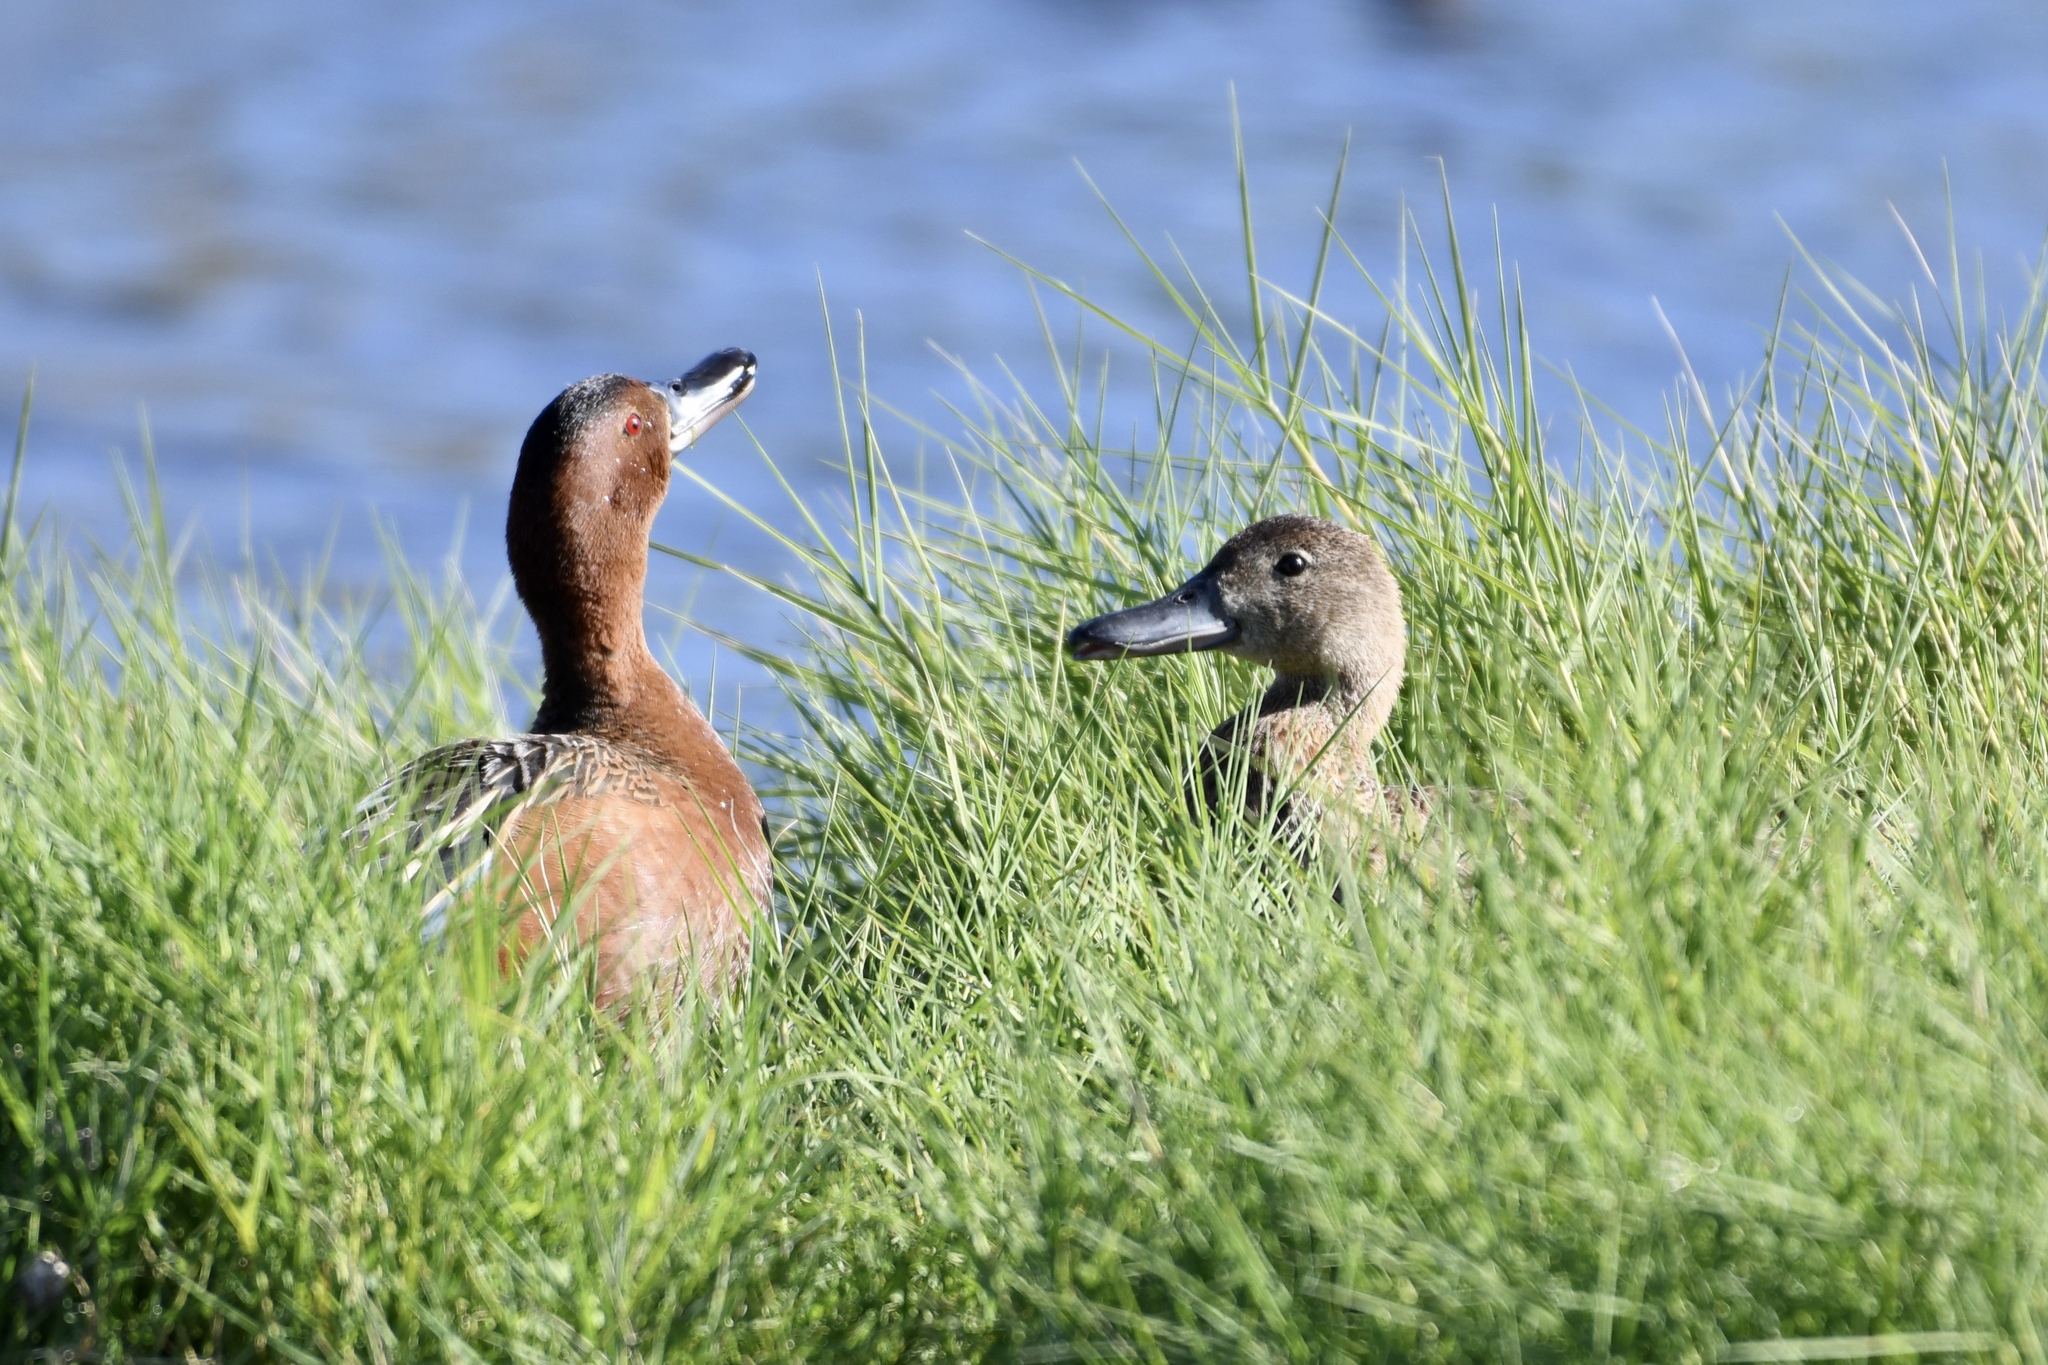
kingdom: Animalia
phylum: Chordata
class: Aves
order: Anseriformes
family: Anatidae
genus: Spatula
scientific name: Spatula cyanoptera
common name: Cinnamon teal
